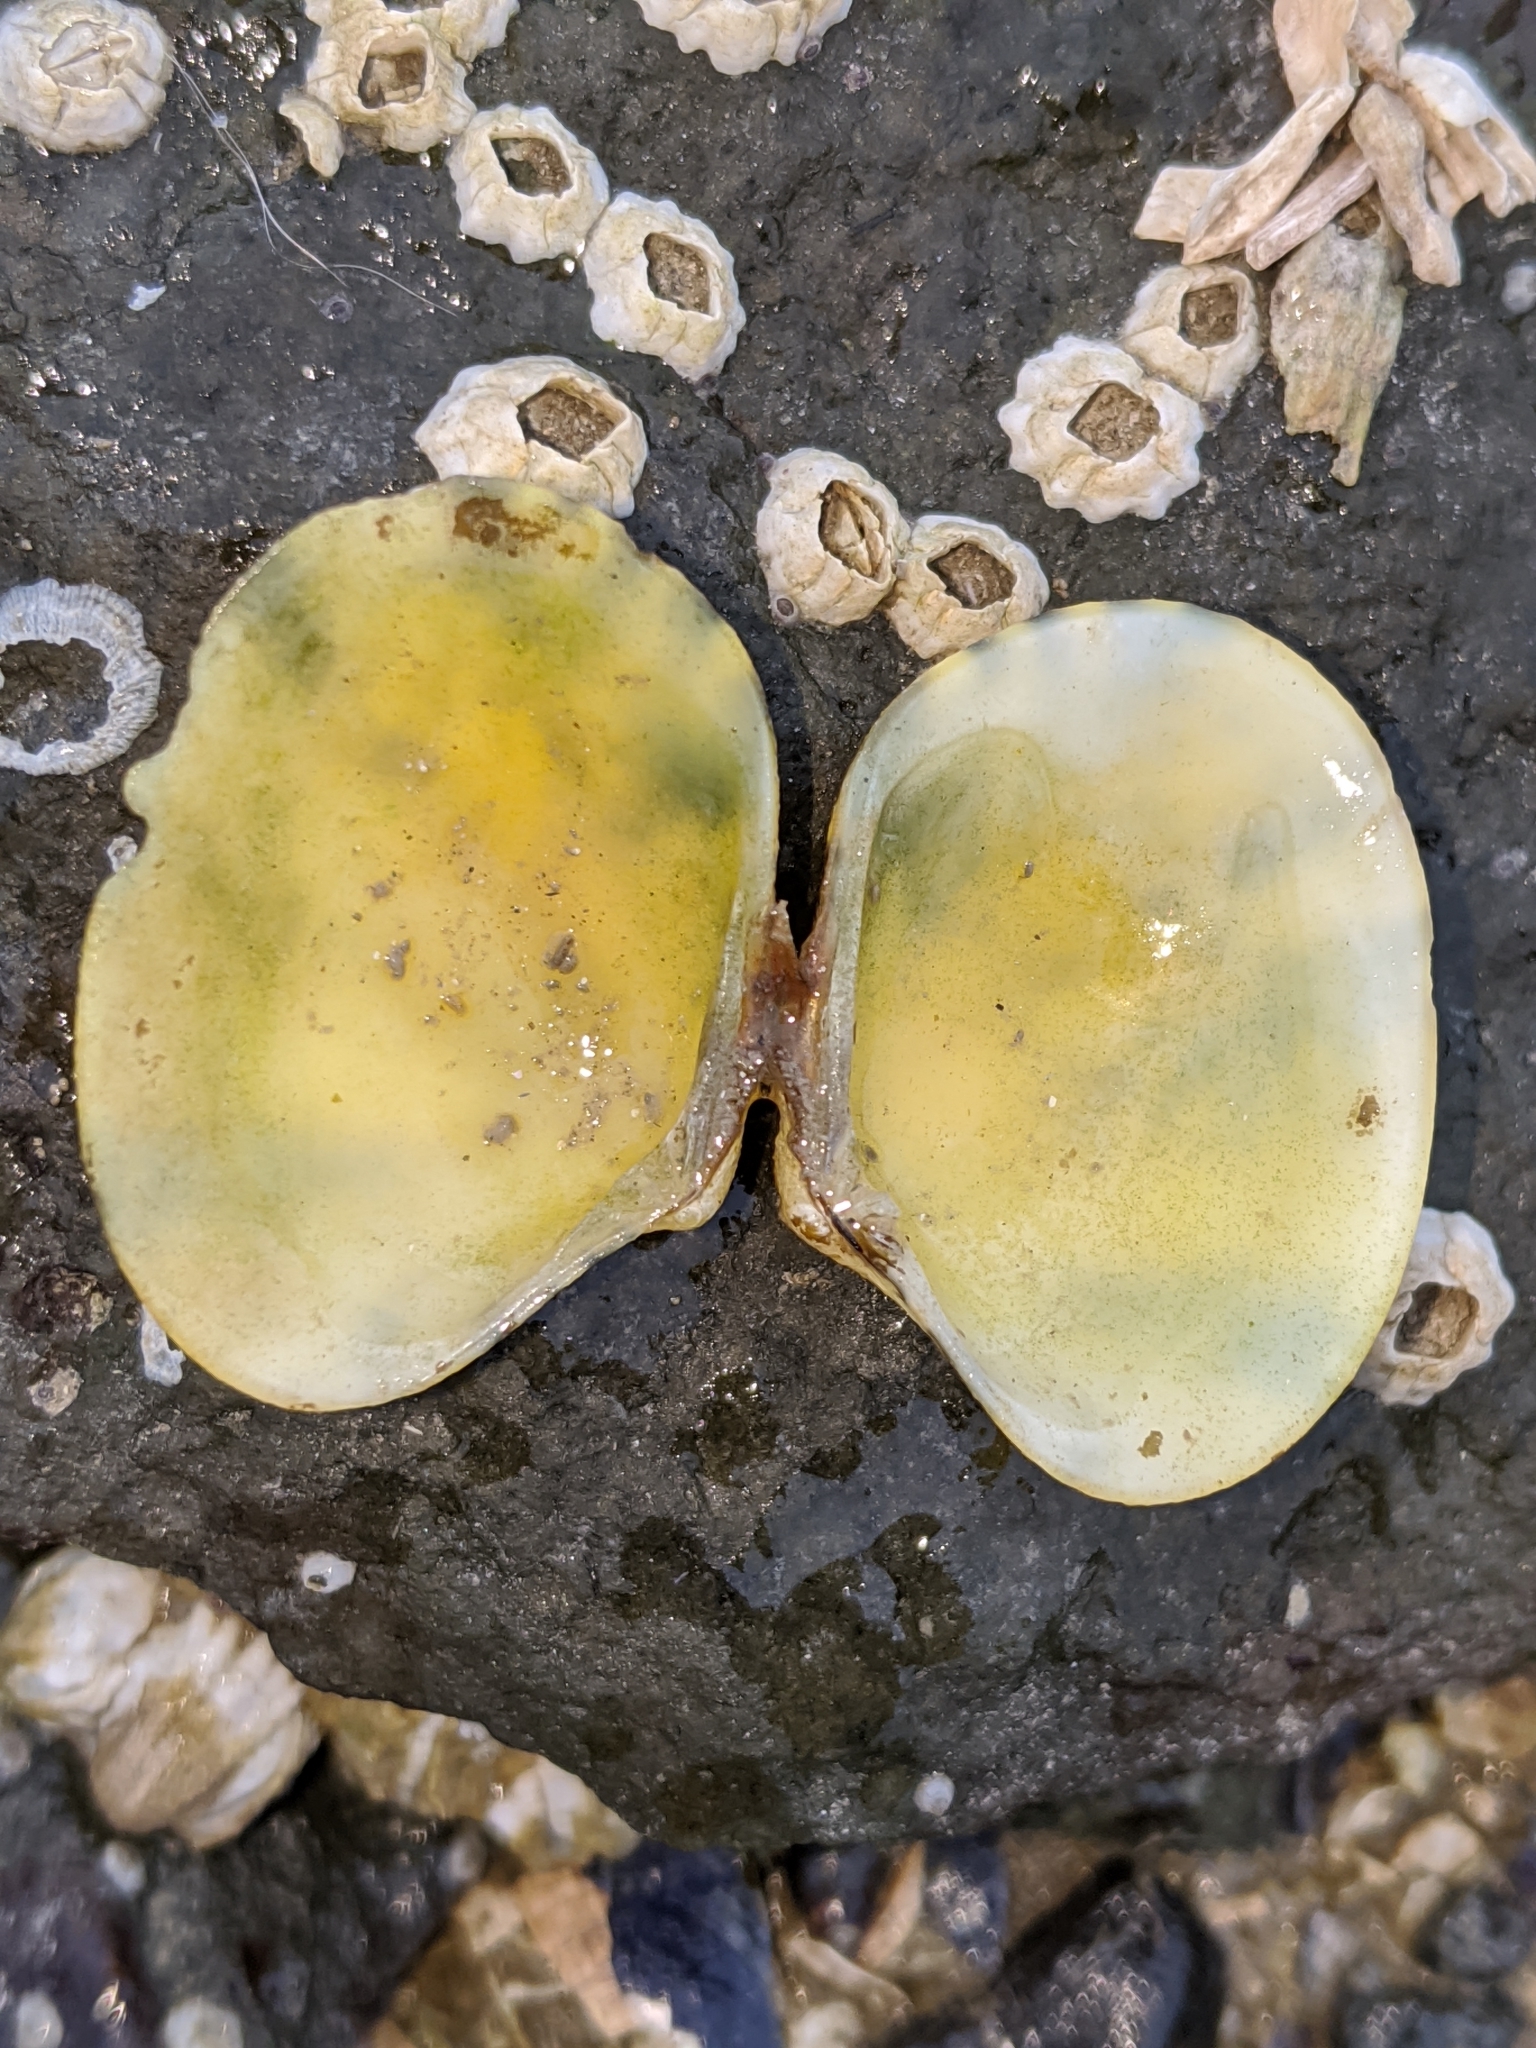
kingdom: Animalia
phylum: Mollusca
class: Bivalvia
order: Venerida
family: Veneridae
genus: Ruditapes
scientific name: Ruditapes philippinarum
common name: Manila clam
